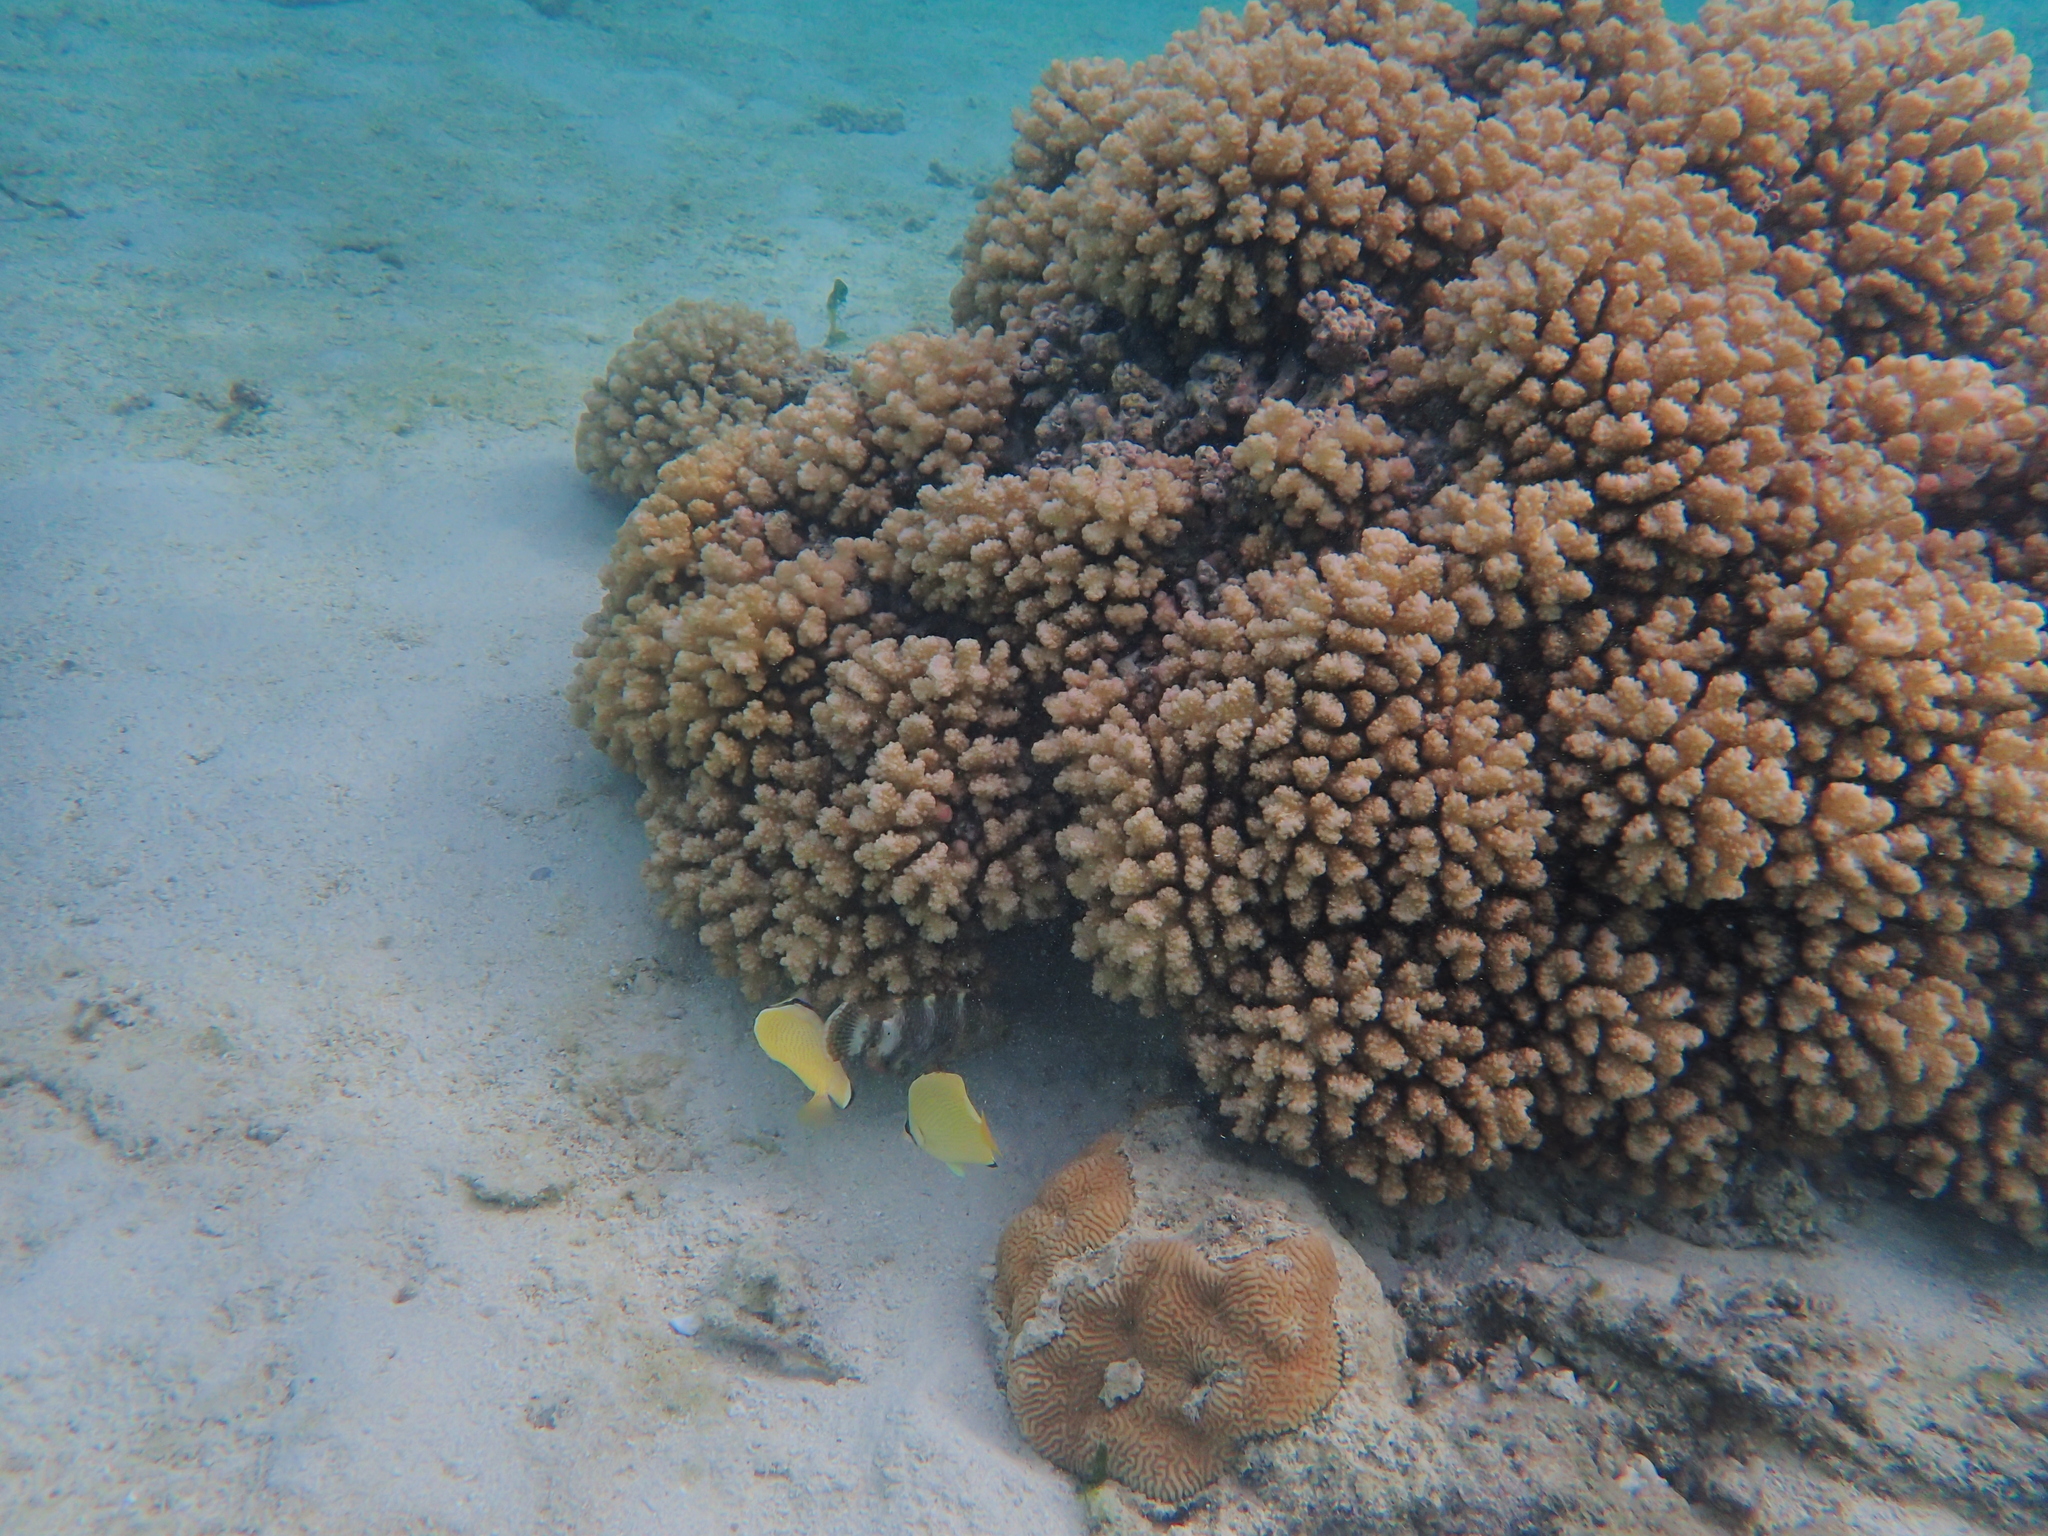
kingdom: Animalia
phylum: Chordata
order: Perciformes
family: Chaetodontidae
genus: Chaetodon
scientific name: Chaetodon citrinellus
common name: Speckled butterflyfish
